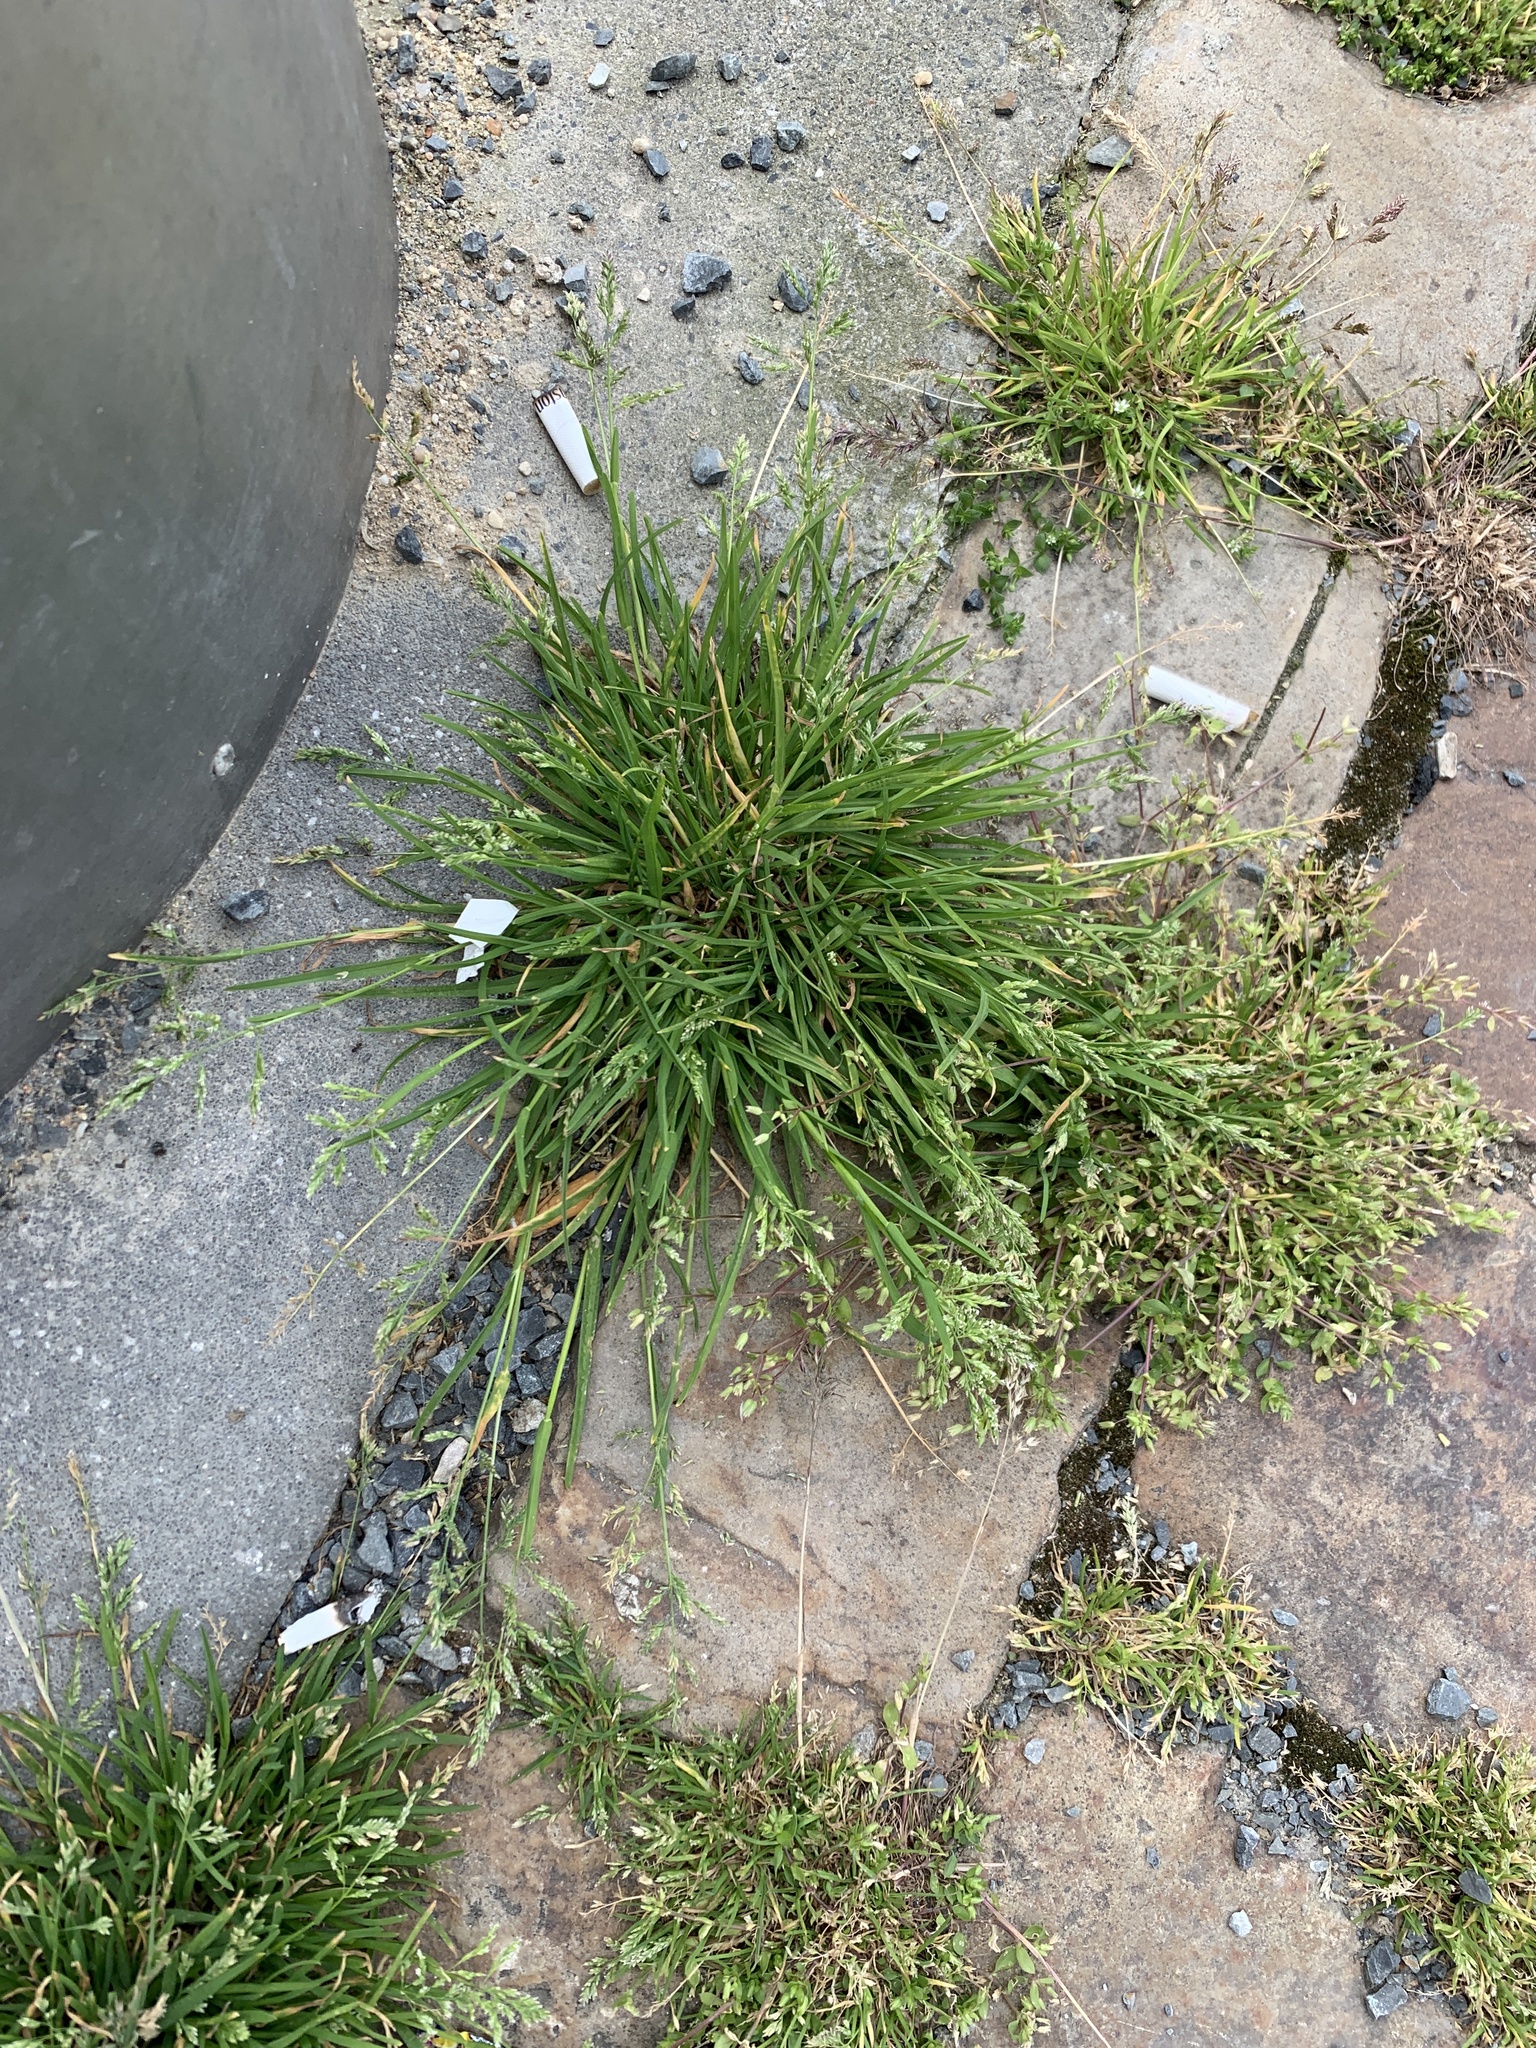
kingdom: Plantae
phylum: Tracheophyta
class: Liliopsida
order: Poales
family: Poaceae
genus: Poa
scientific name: Poa annua
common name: Annual bluegrass
